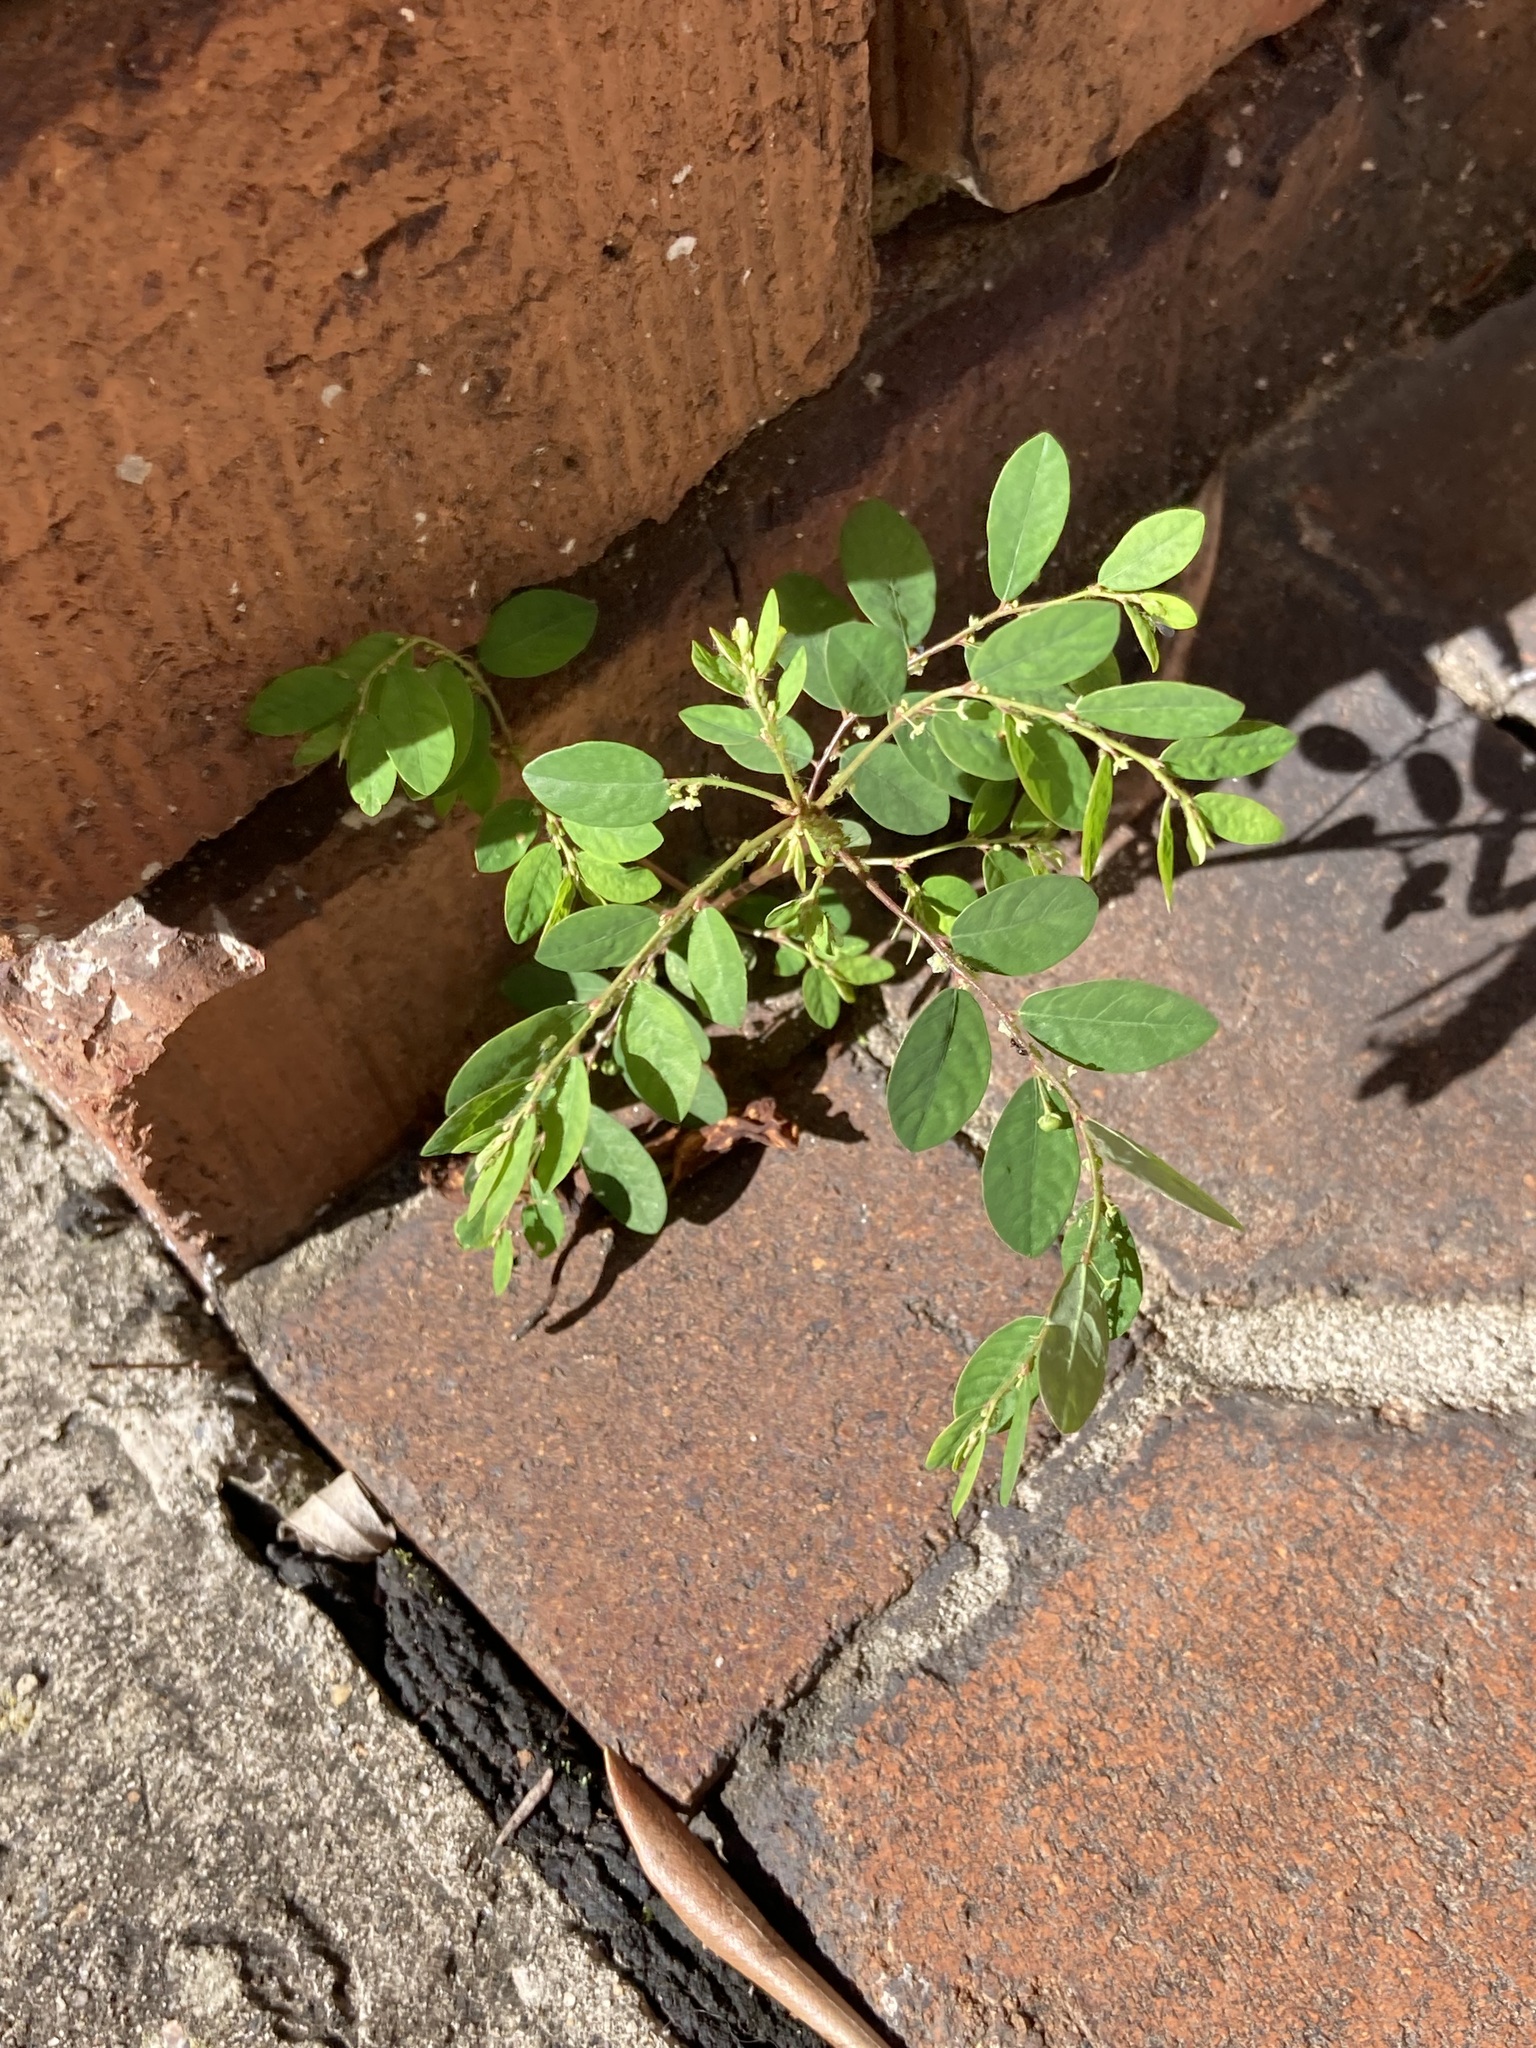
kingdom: Plantae
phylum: Tracheophyta
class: Magnoliopsida
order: Malpighiales
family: Phyllanthaceae
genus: Phyllanthus
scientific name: Phyllanthus tenellus
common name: Mascarene island leaf-flower
